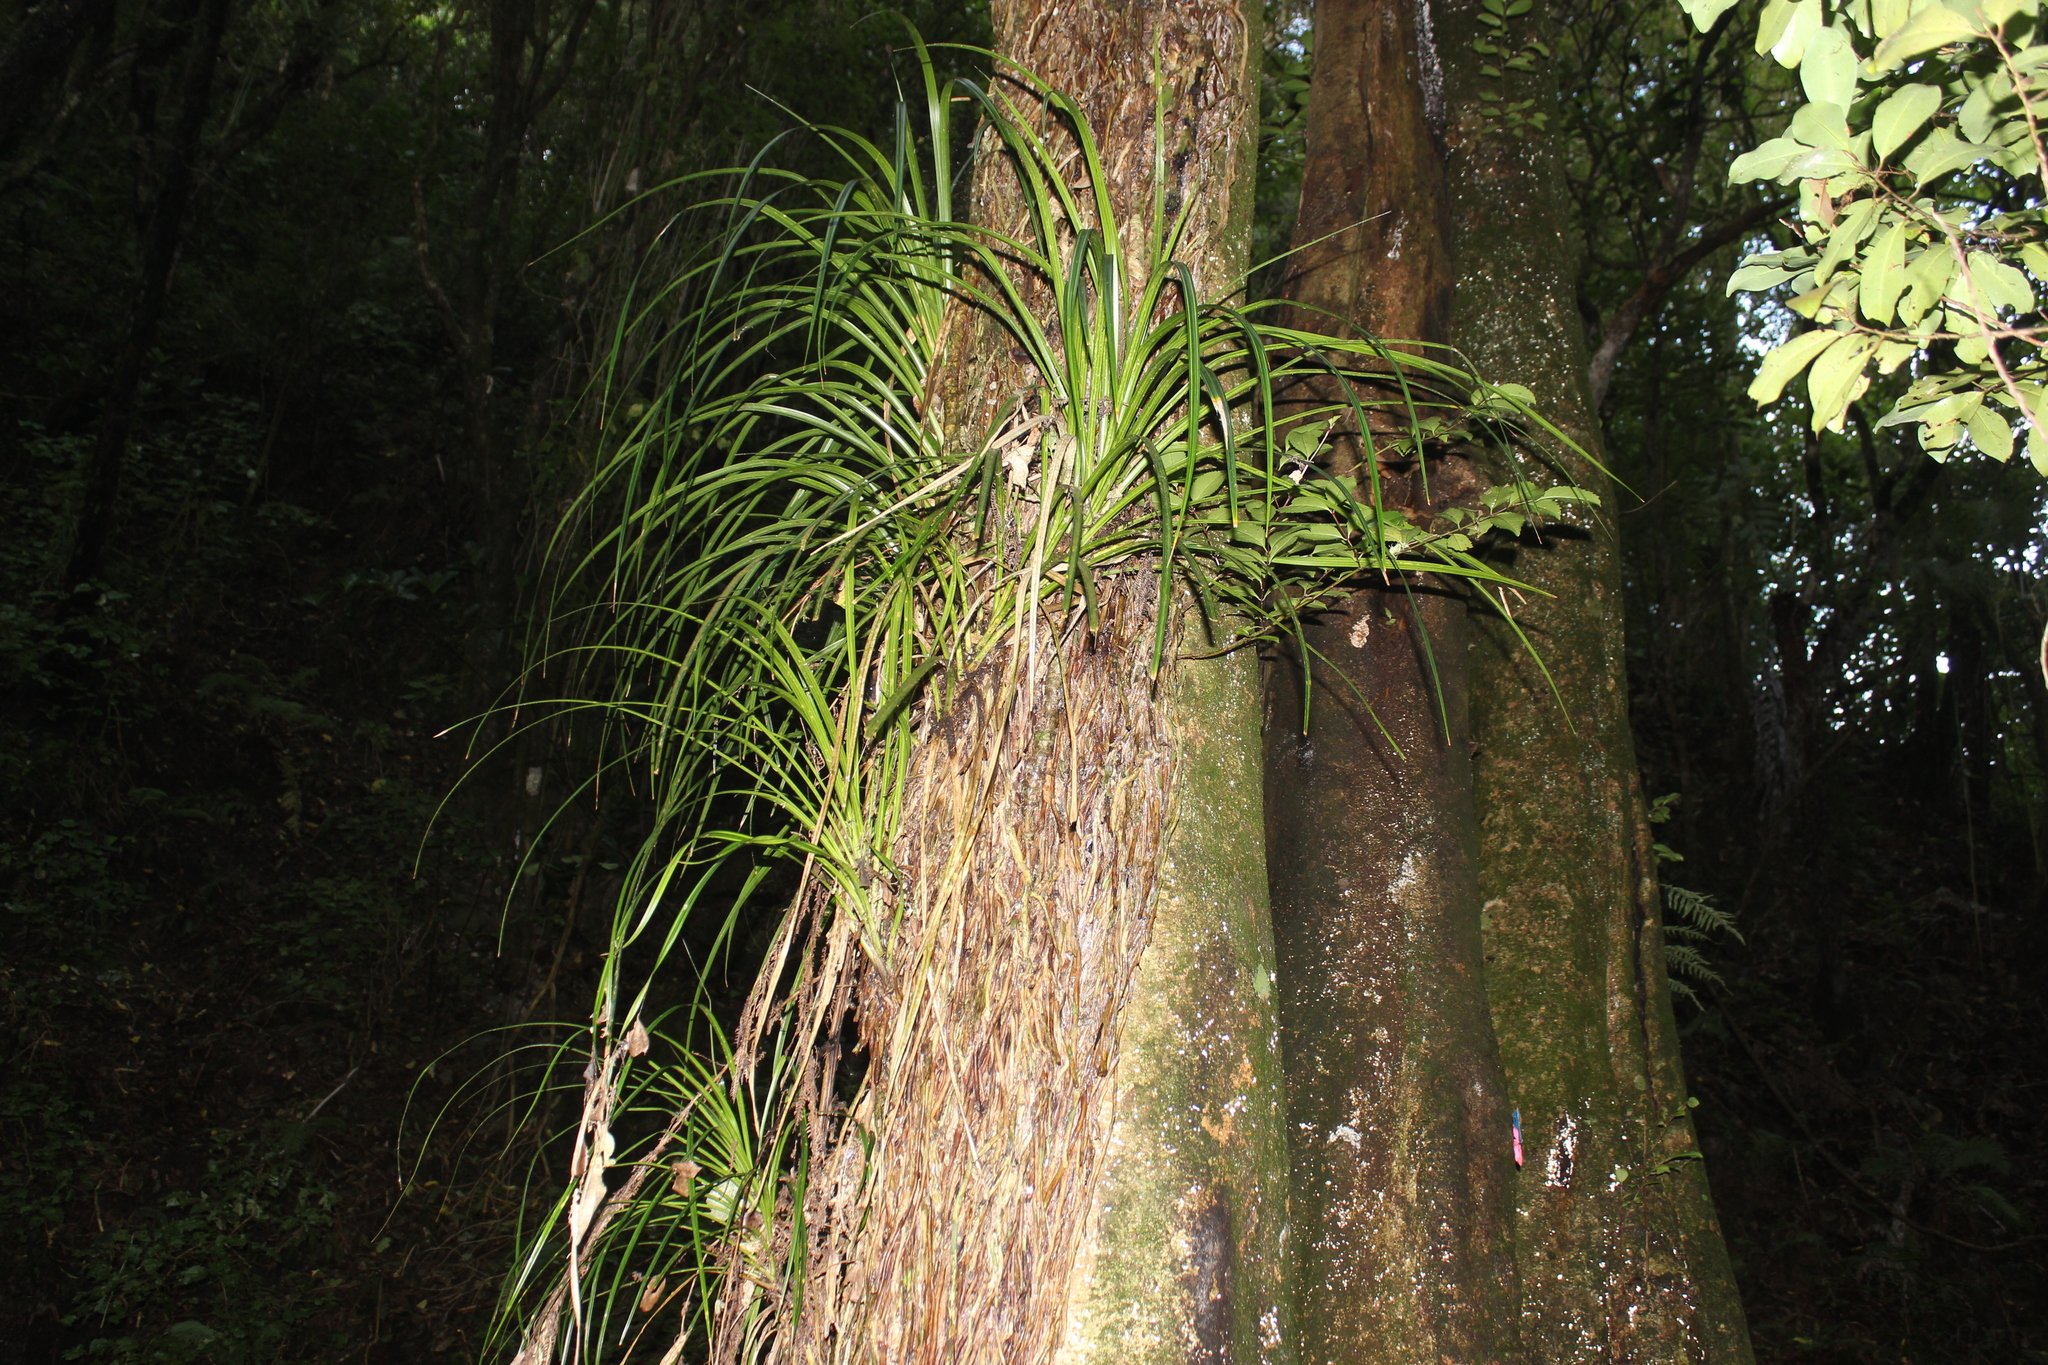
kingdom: Plantae
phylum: Tracheophyta
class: Liliopsida
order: Pandanales
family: Pandanaceae
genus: Freycinetia
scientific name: Freycinetia banksii
